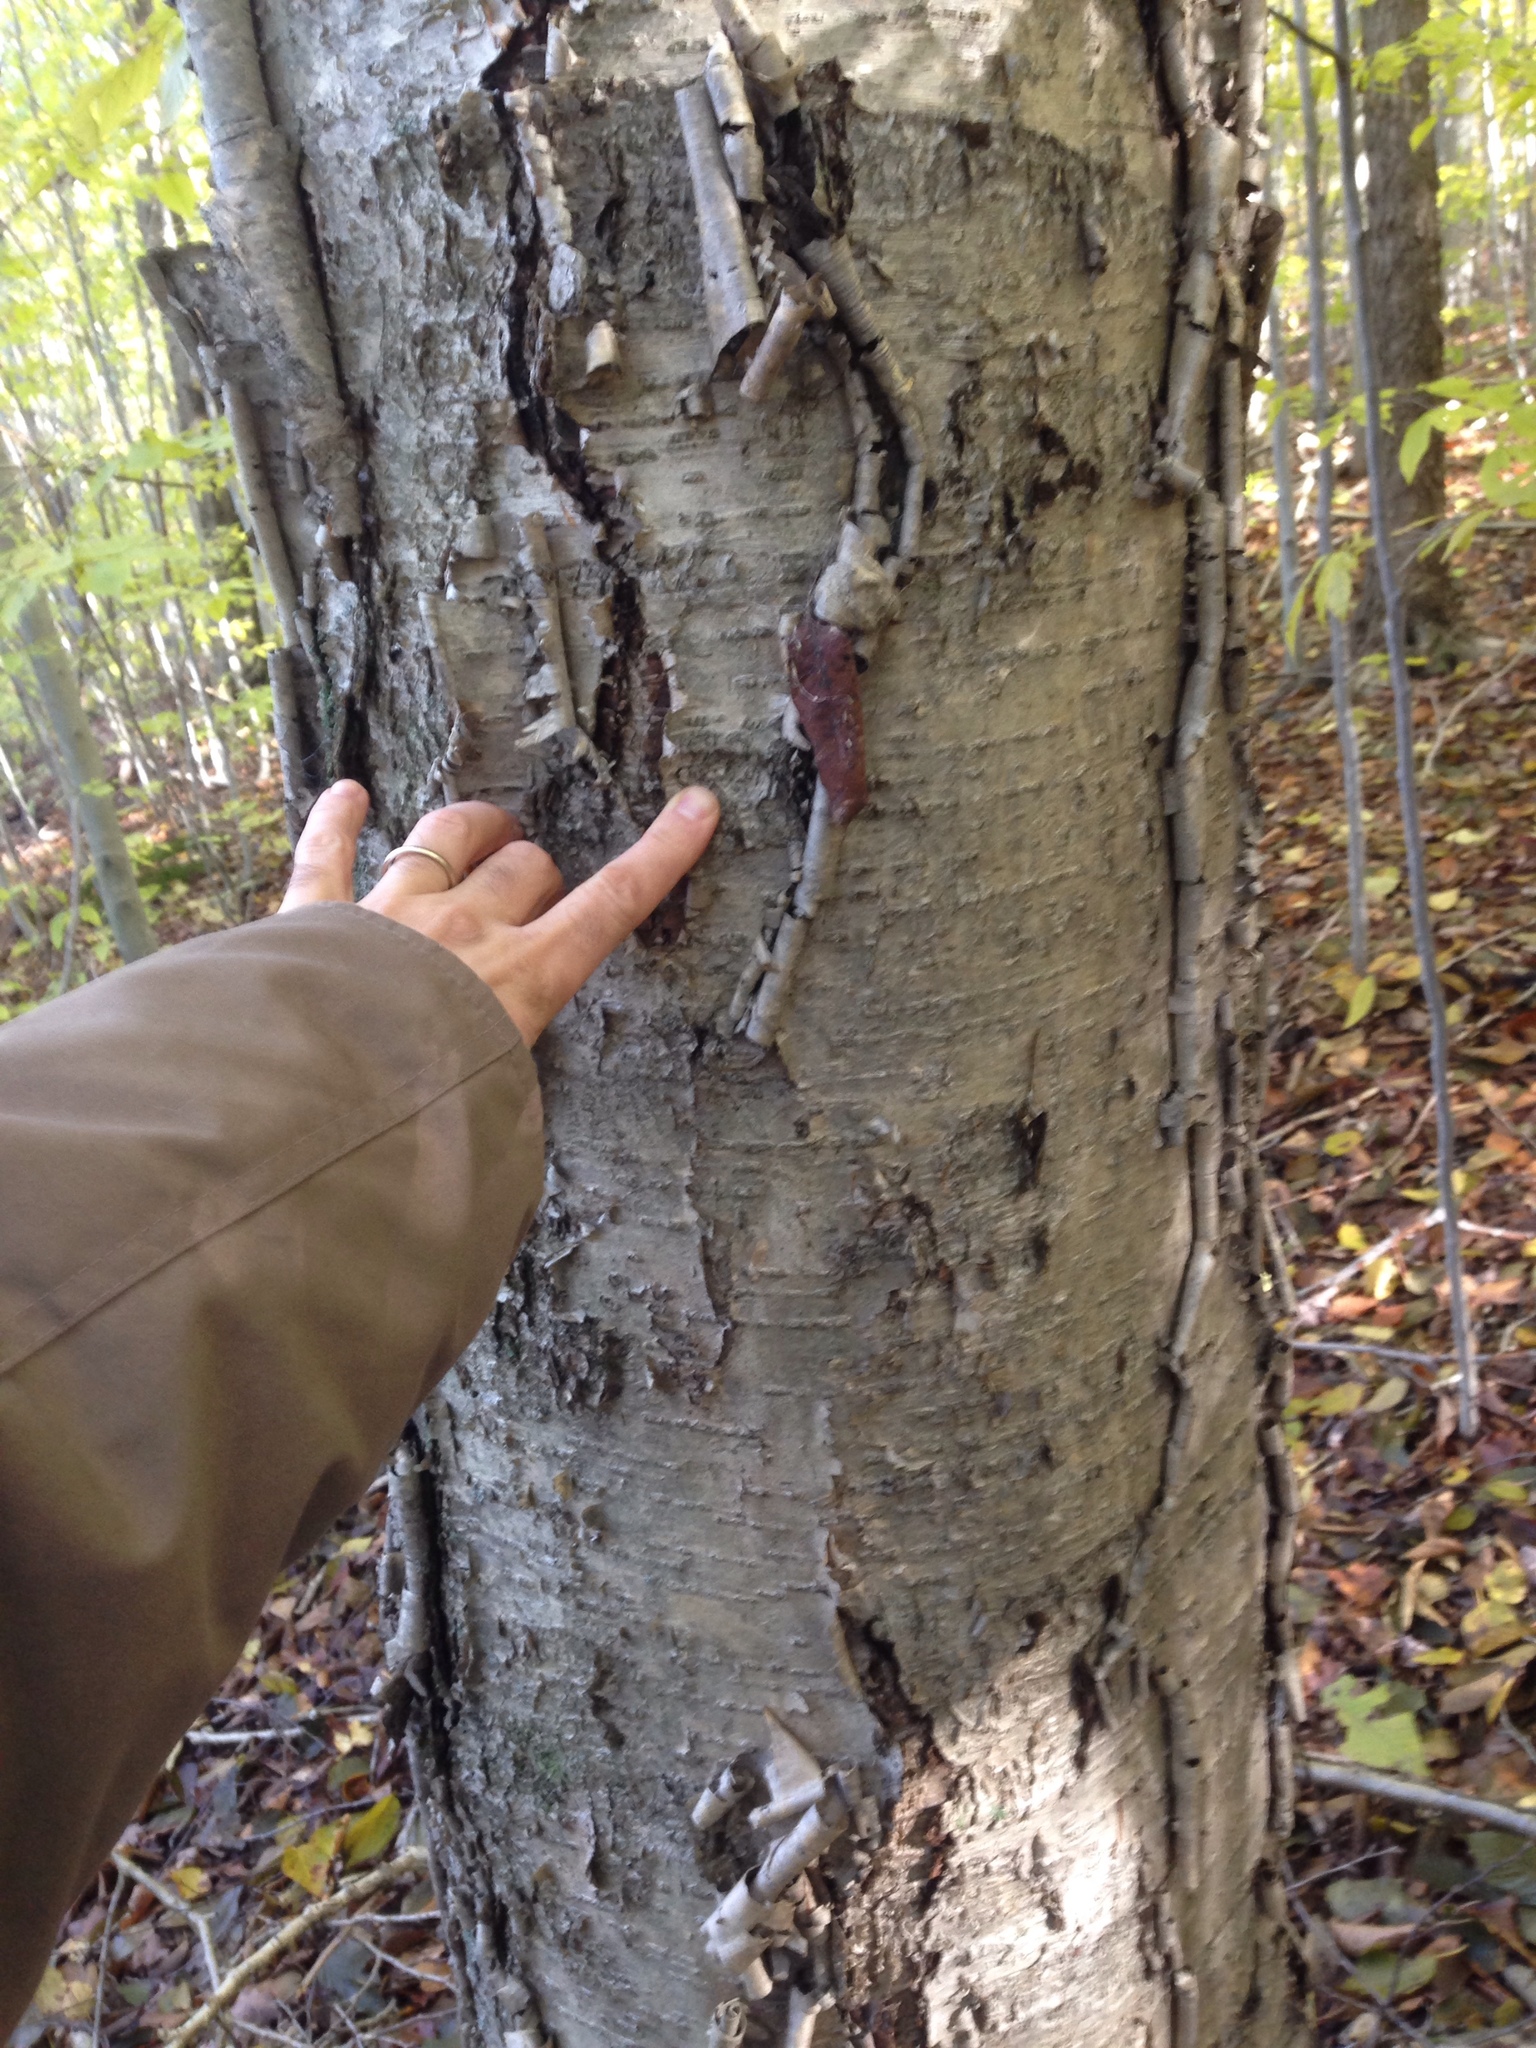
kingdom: Plantae
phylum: Tracheophyta
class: Magnoliopsida
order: Fagales
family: Betulaceae
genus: Betula
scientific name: Betula alleghaniensis
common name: Yellow birch
